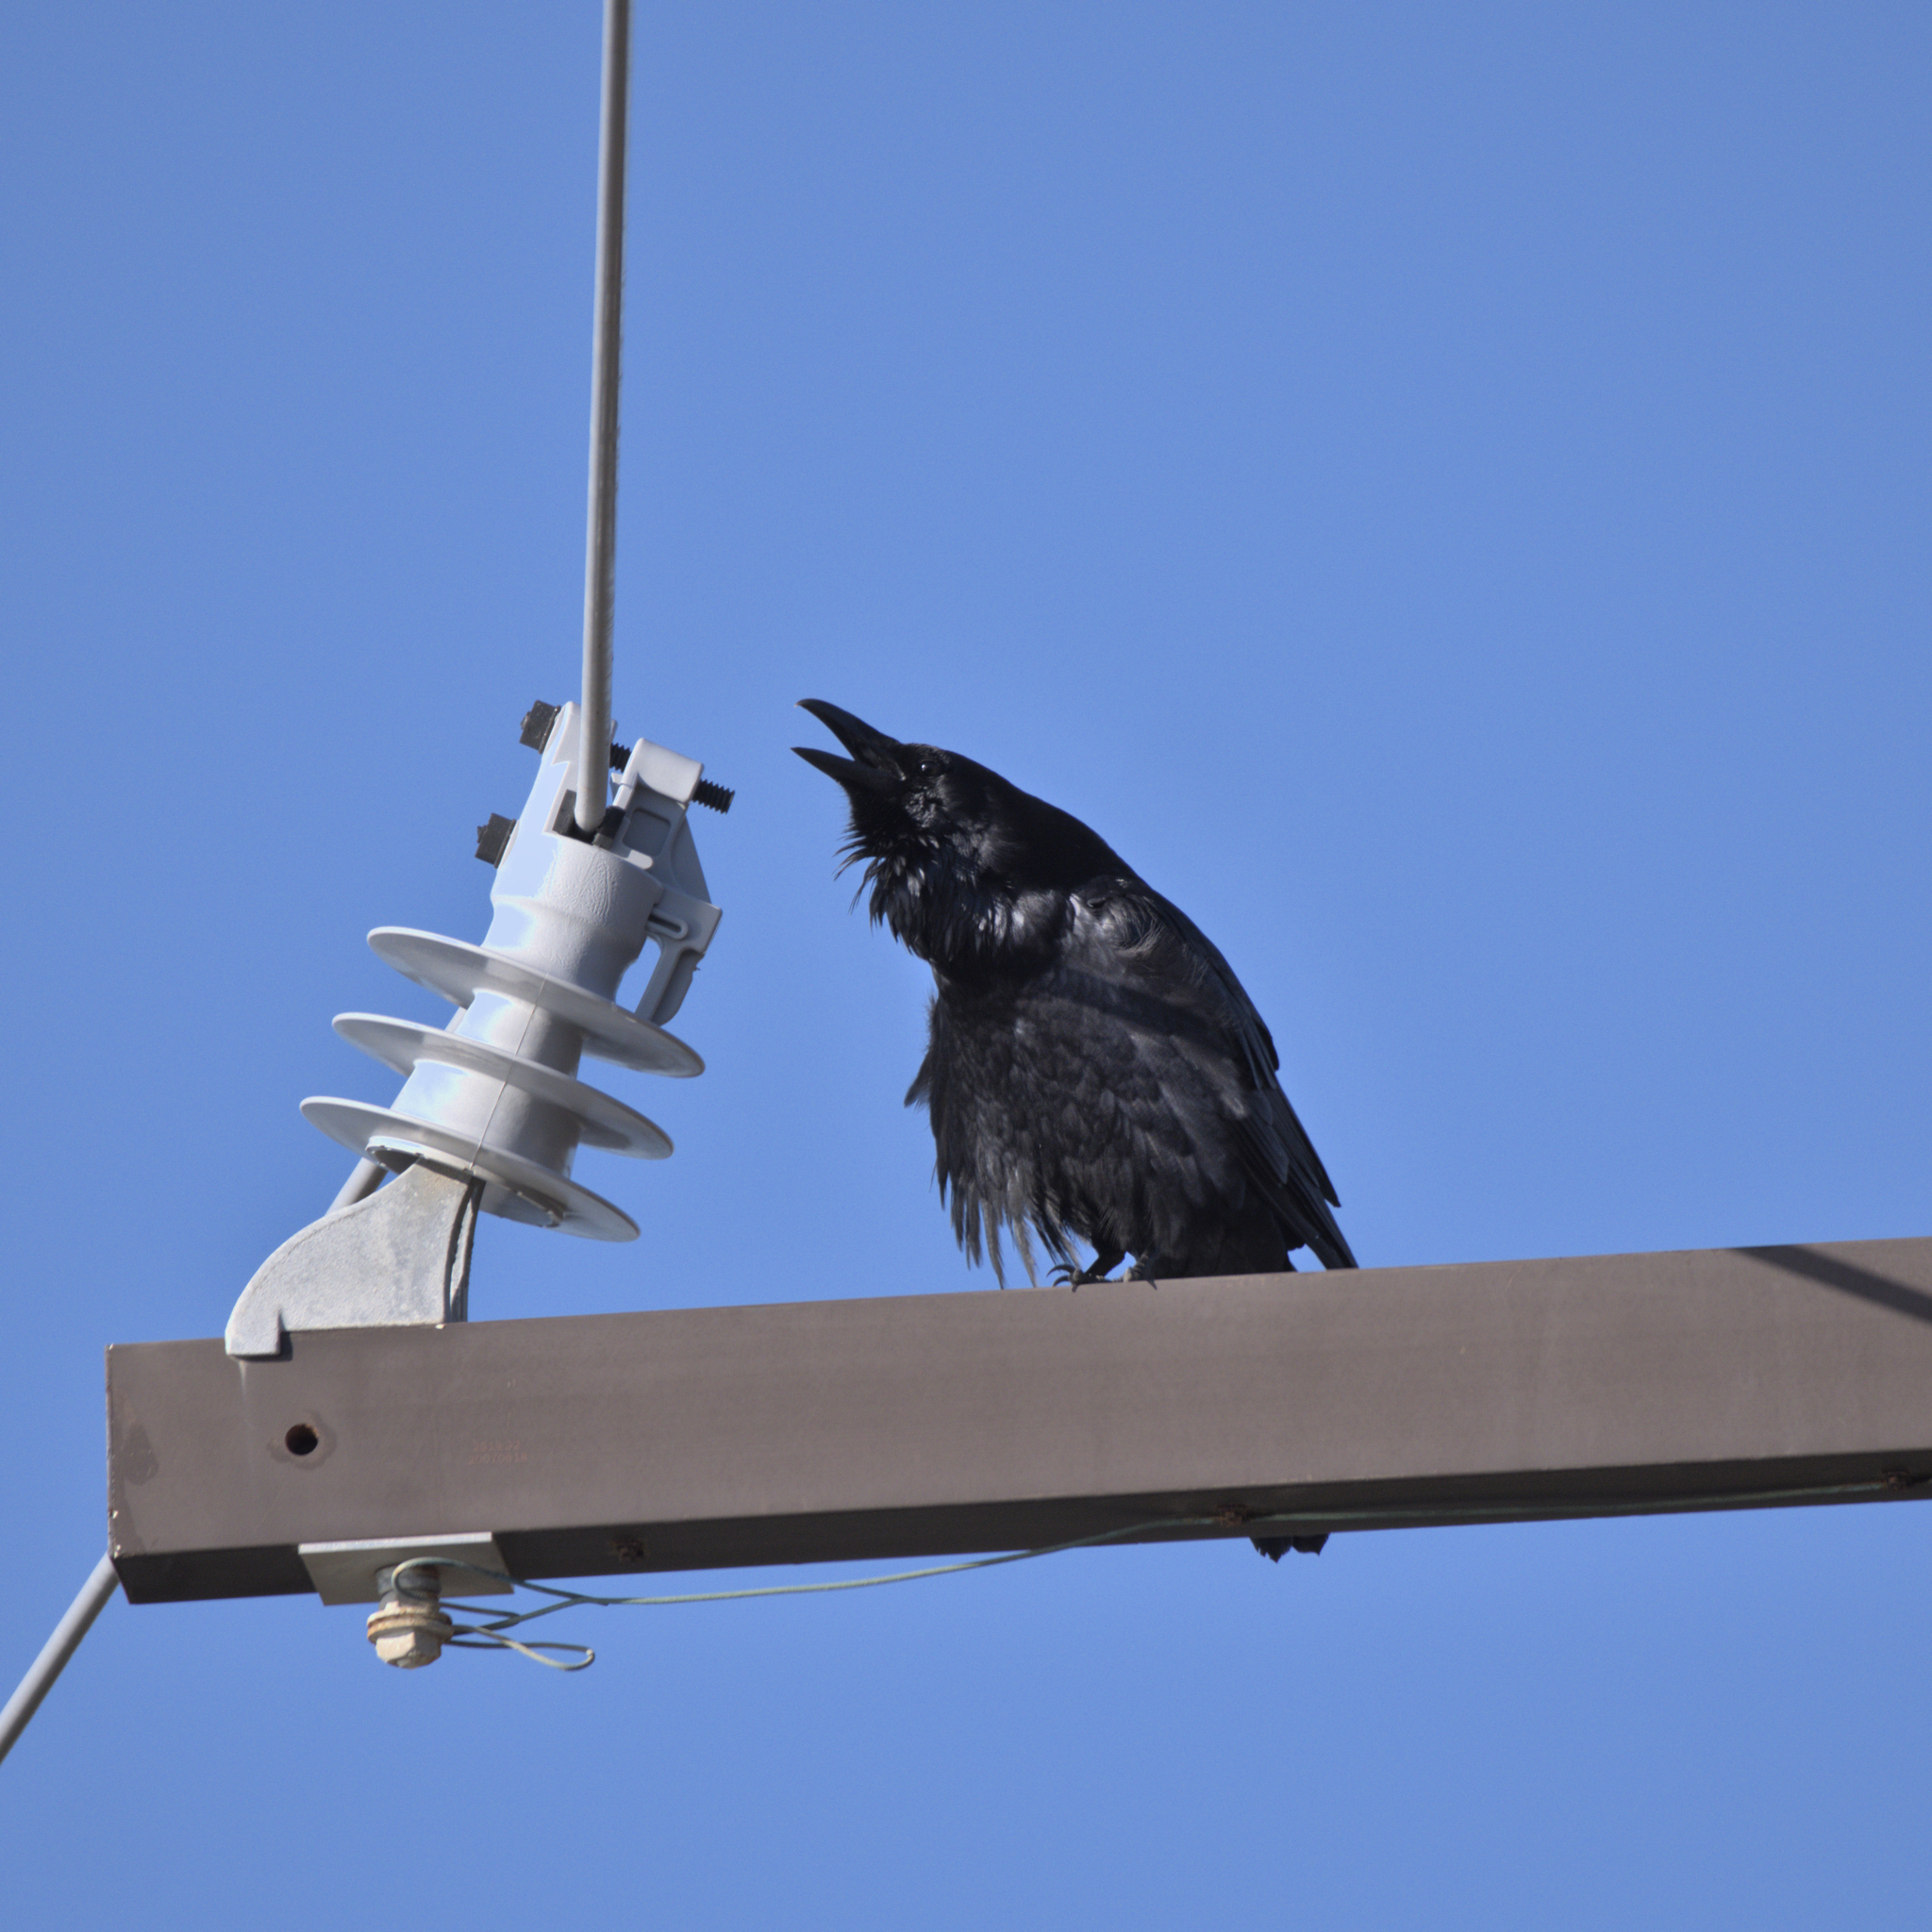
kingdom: Animalia
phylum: Chordata
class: Aves
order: Passeriformes
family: Corvidae
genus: Corvus
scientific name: Corvus corax
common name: Common raven
